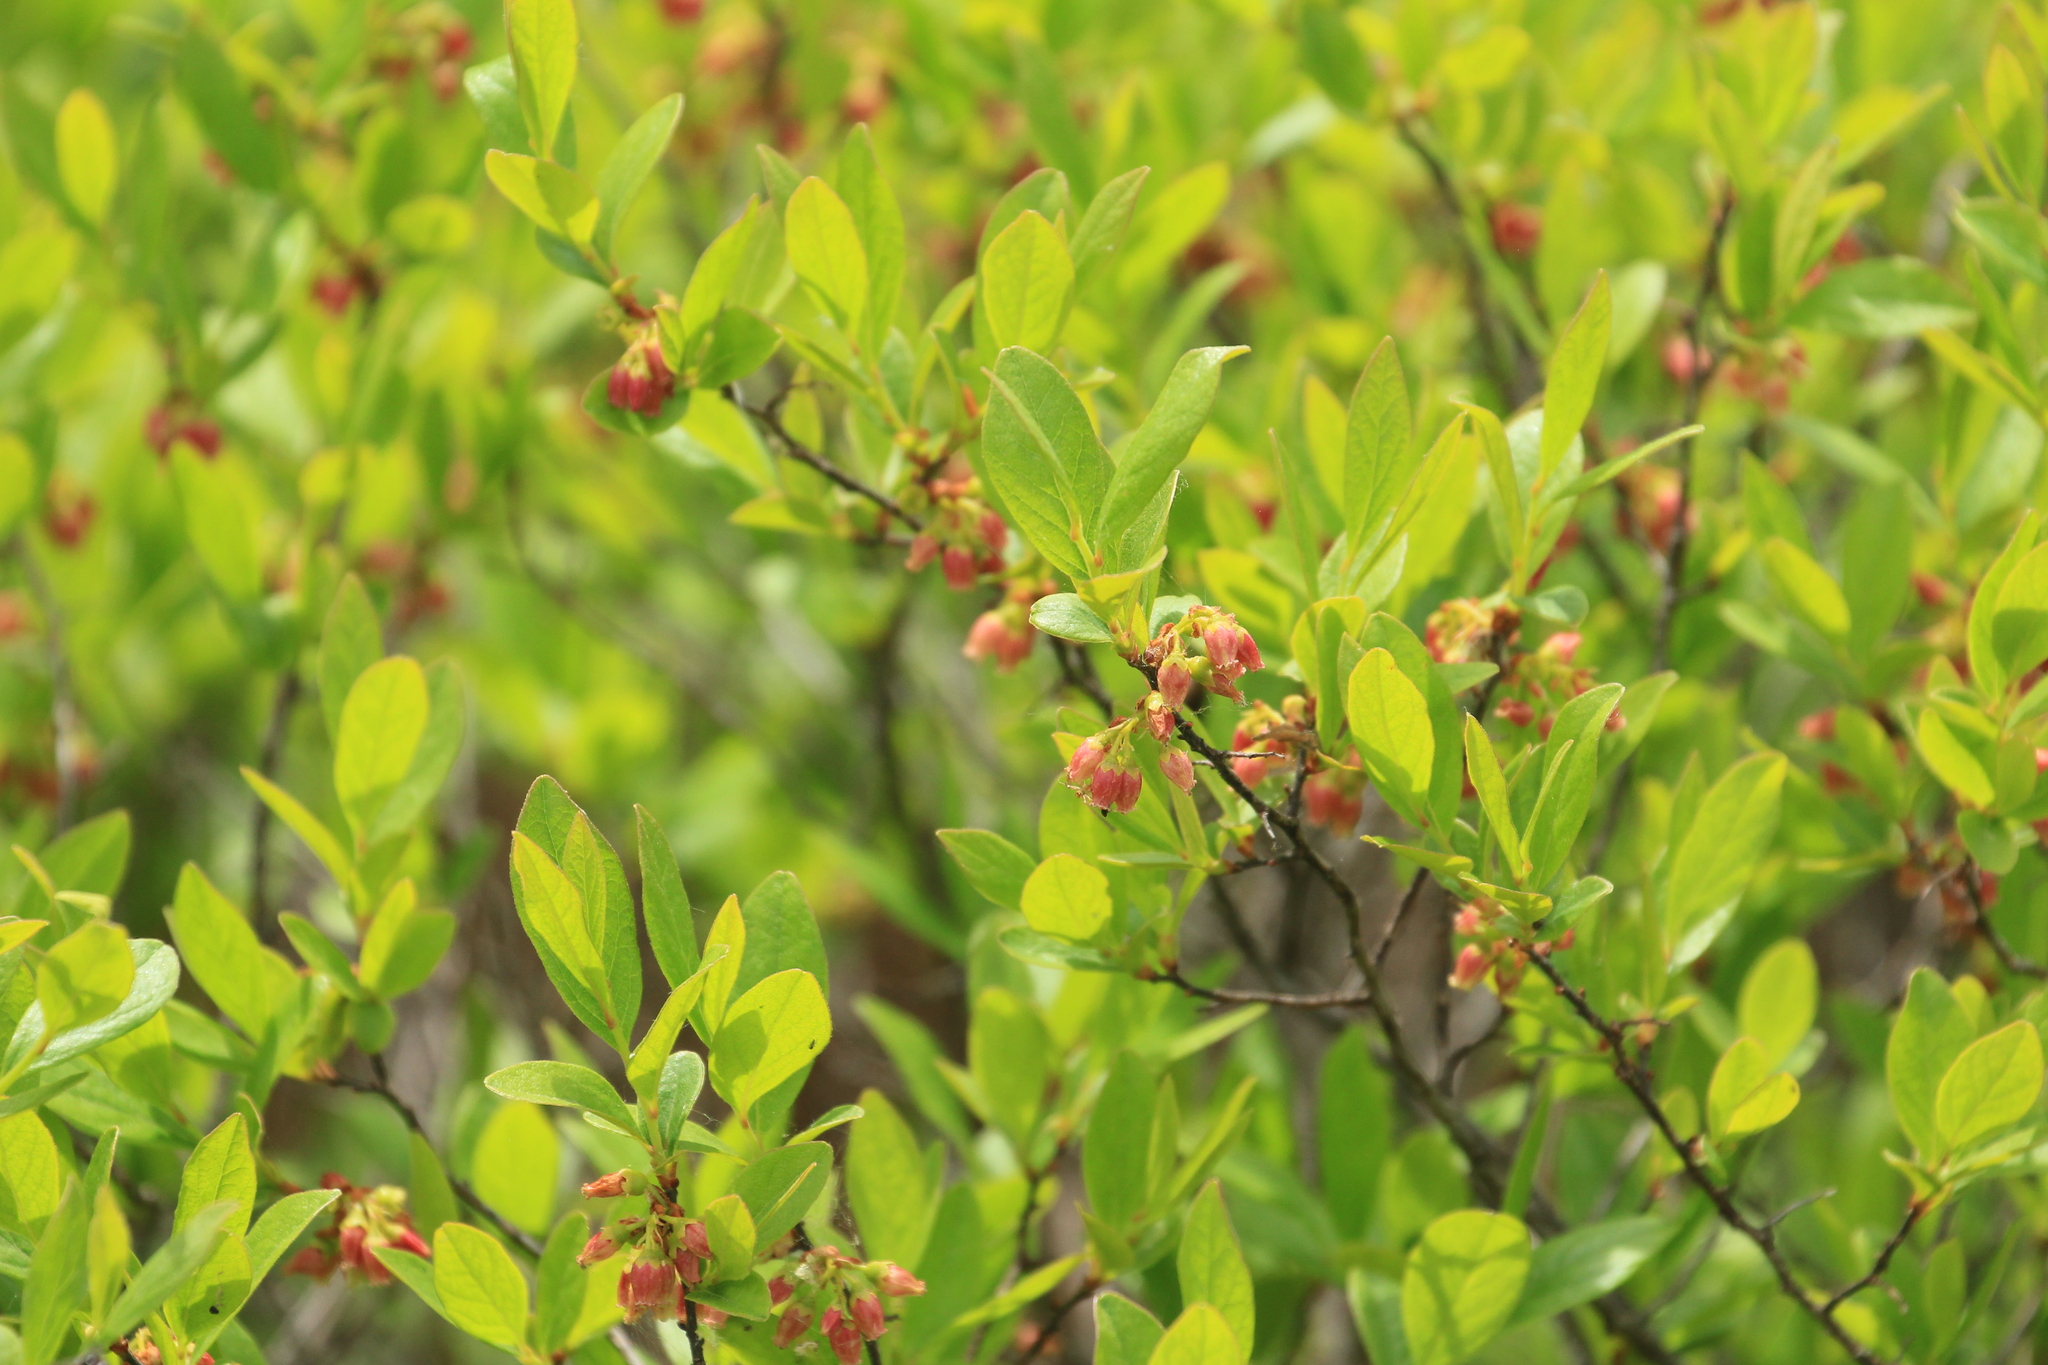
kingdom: Plantae
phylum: Tracheophyta
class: Magnoliopsida
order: Ericales
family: Ericaceae
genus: Gaylussacia
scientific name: Gaylussacia baccata
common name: Black huckleberry
